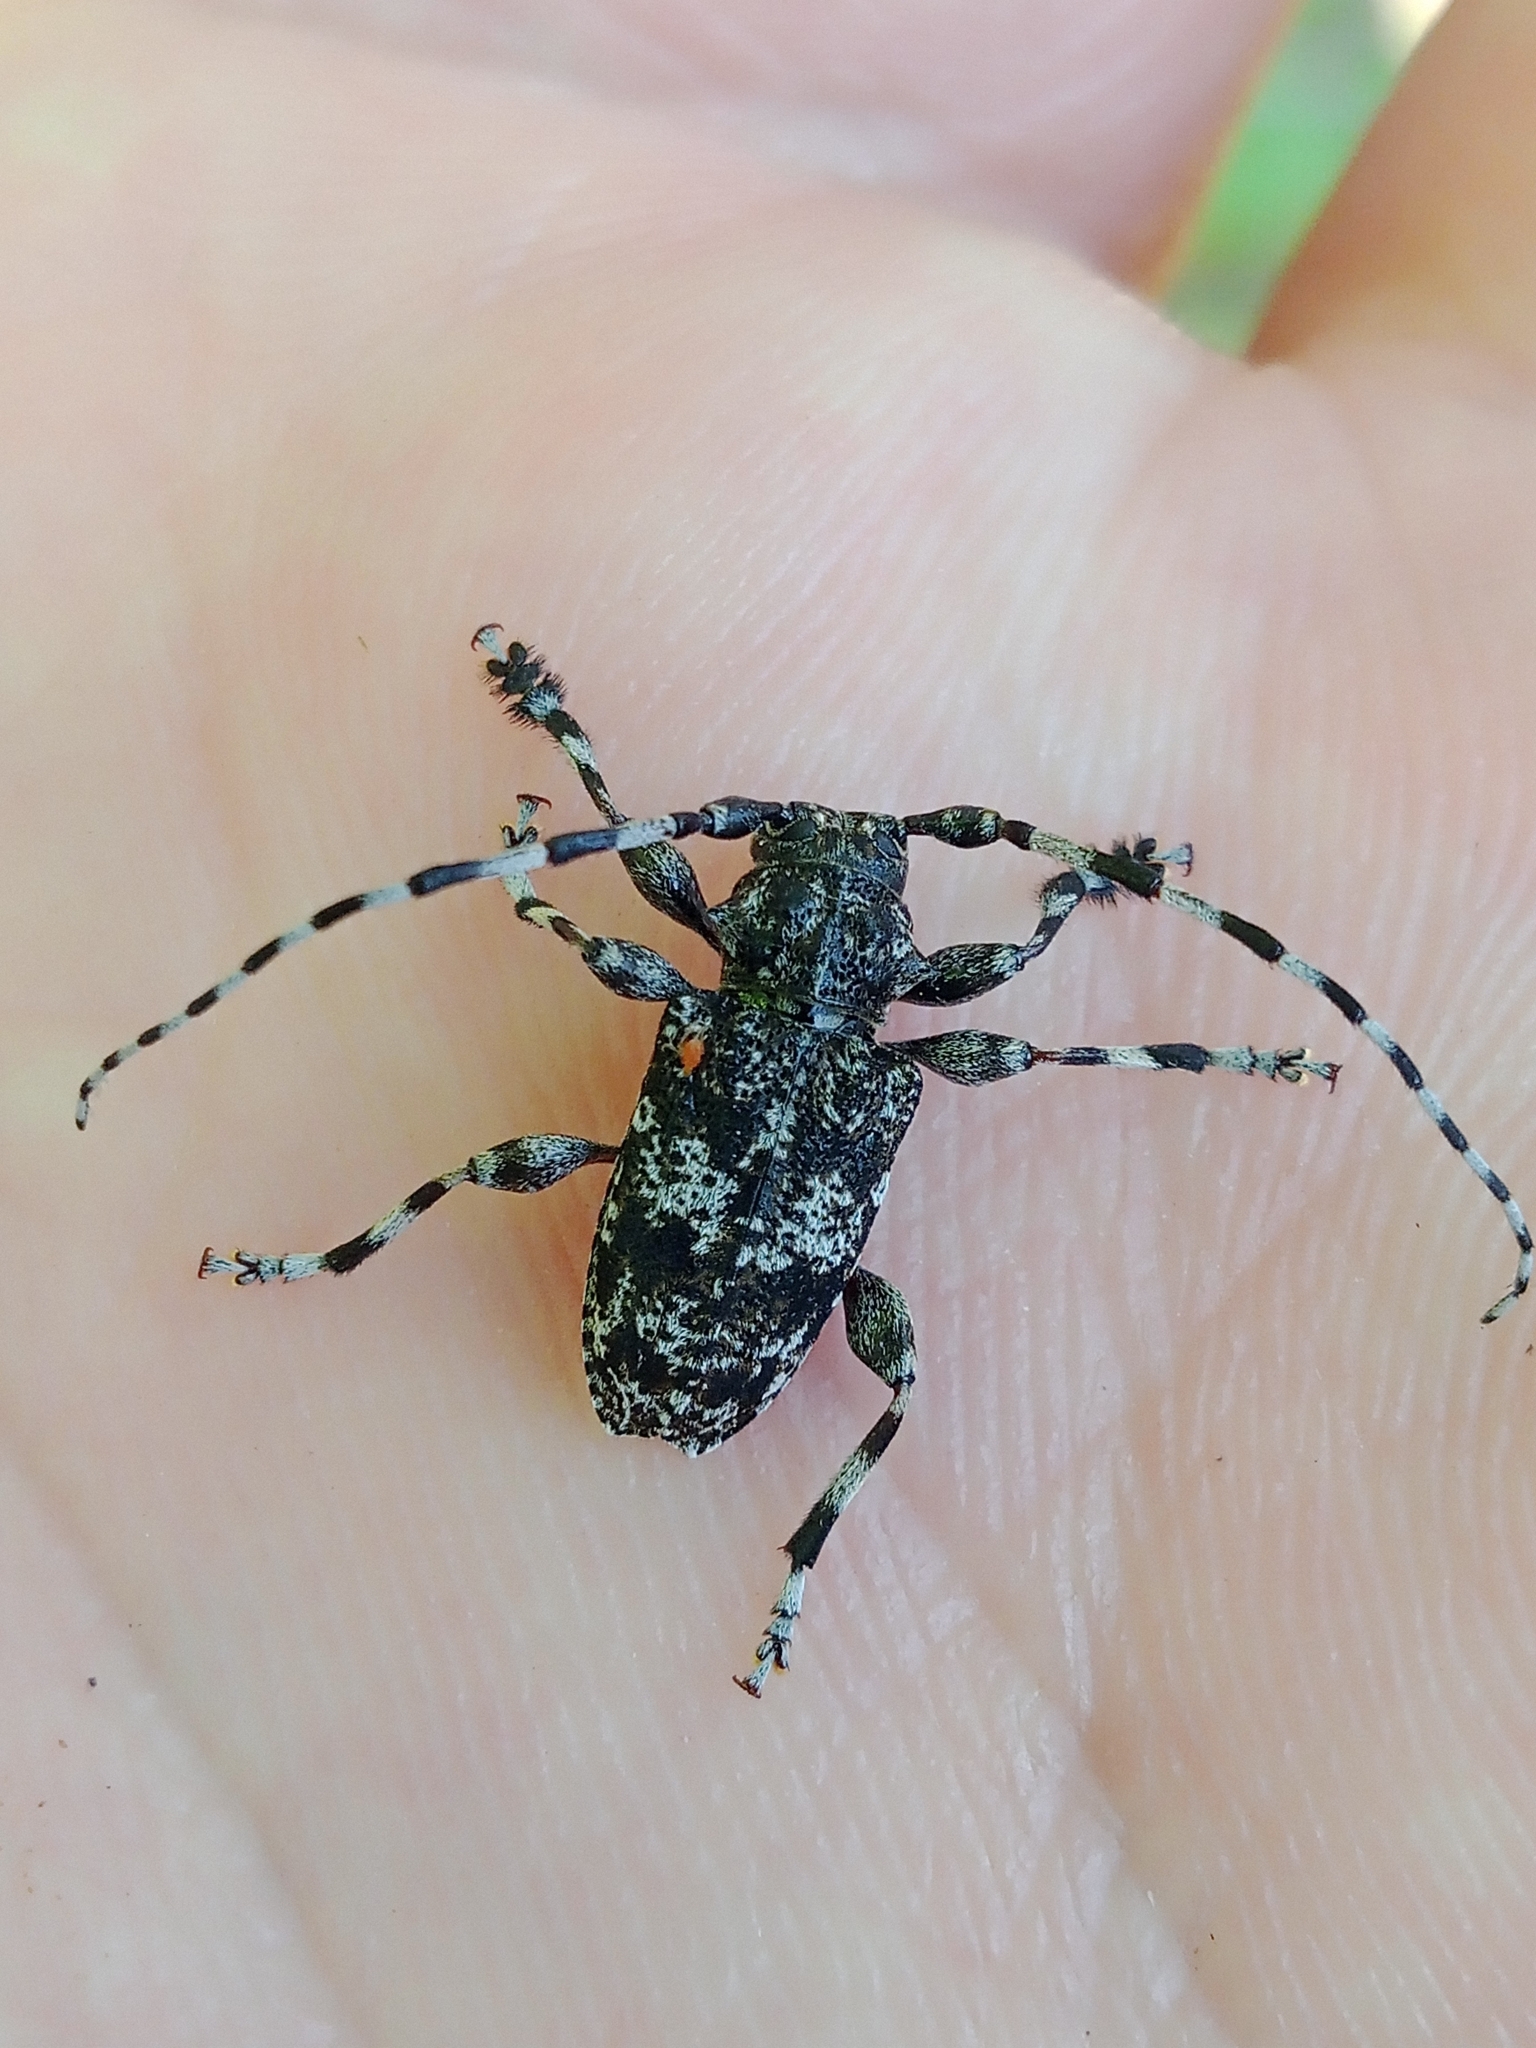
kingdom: Animalia
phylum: Arthropoda
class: Insecta
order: Coleoptera
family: Cerambycidae
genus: Aegomorphus
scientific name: Aegomorphus obscurior
